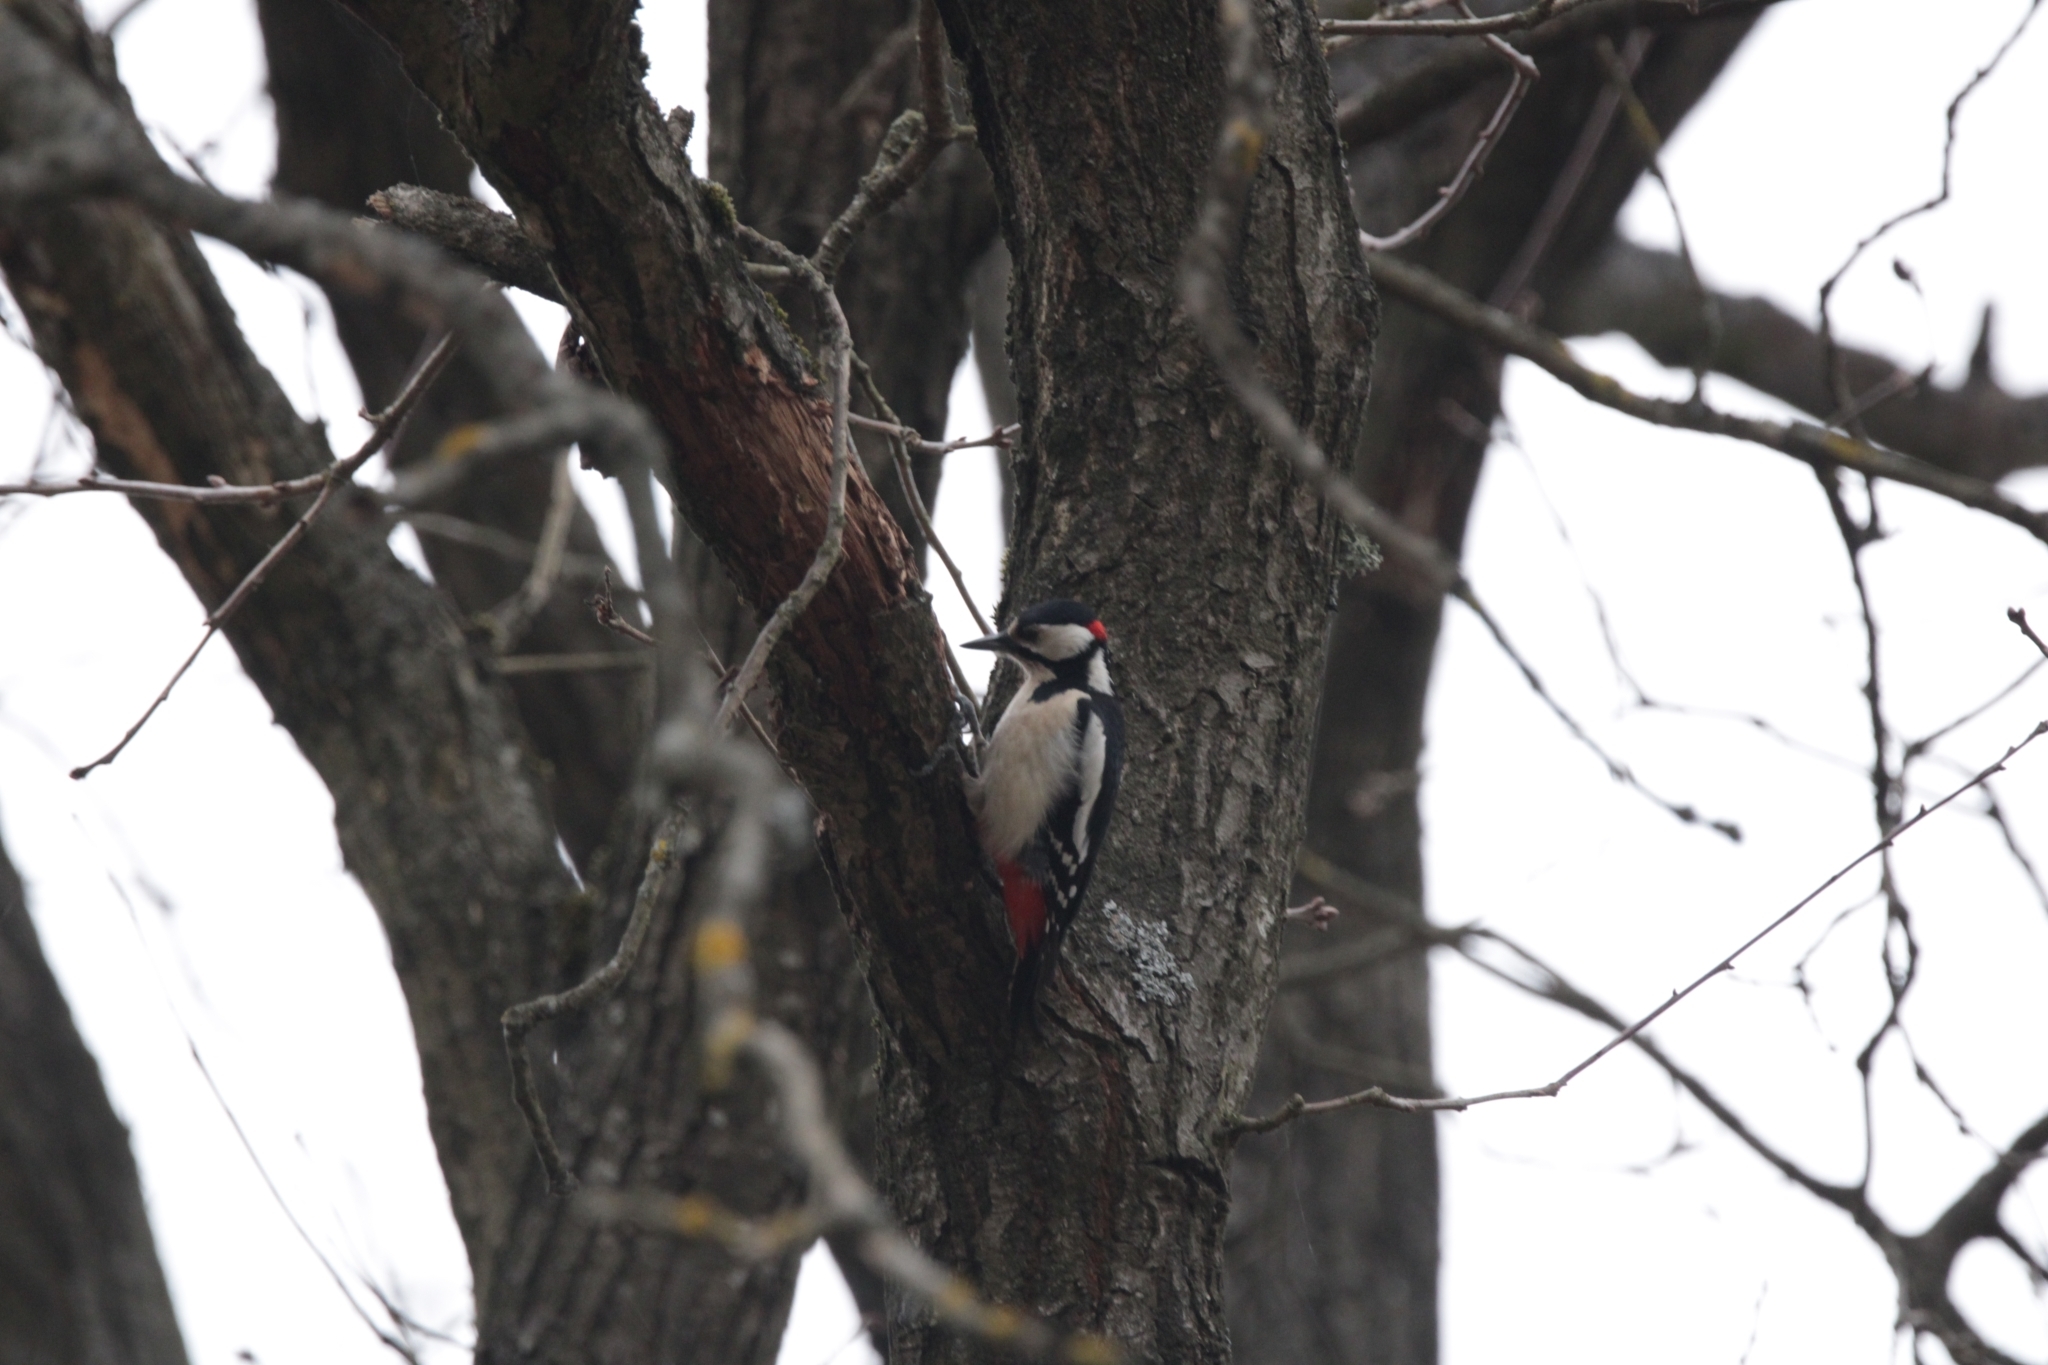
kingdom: Animalia
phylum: Chordata
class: Aves
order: Piciformes
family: Picidae
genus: Dendrocopos
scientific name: Dendrocopos major
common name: Great spotted woodpecker
